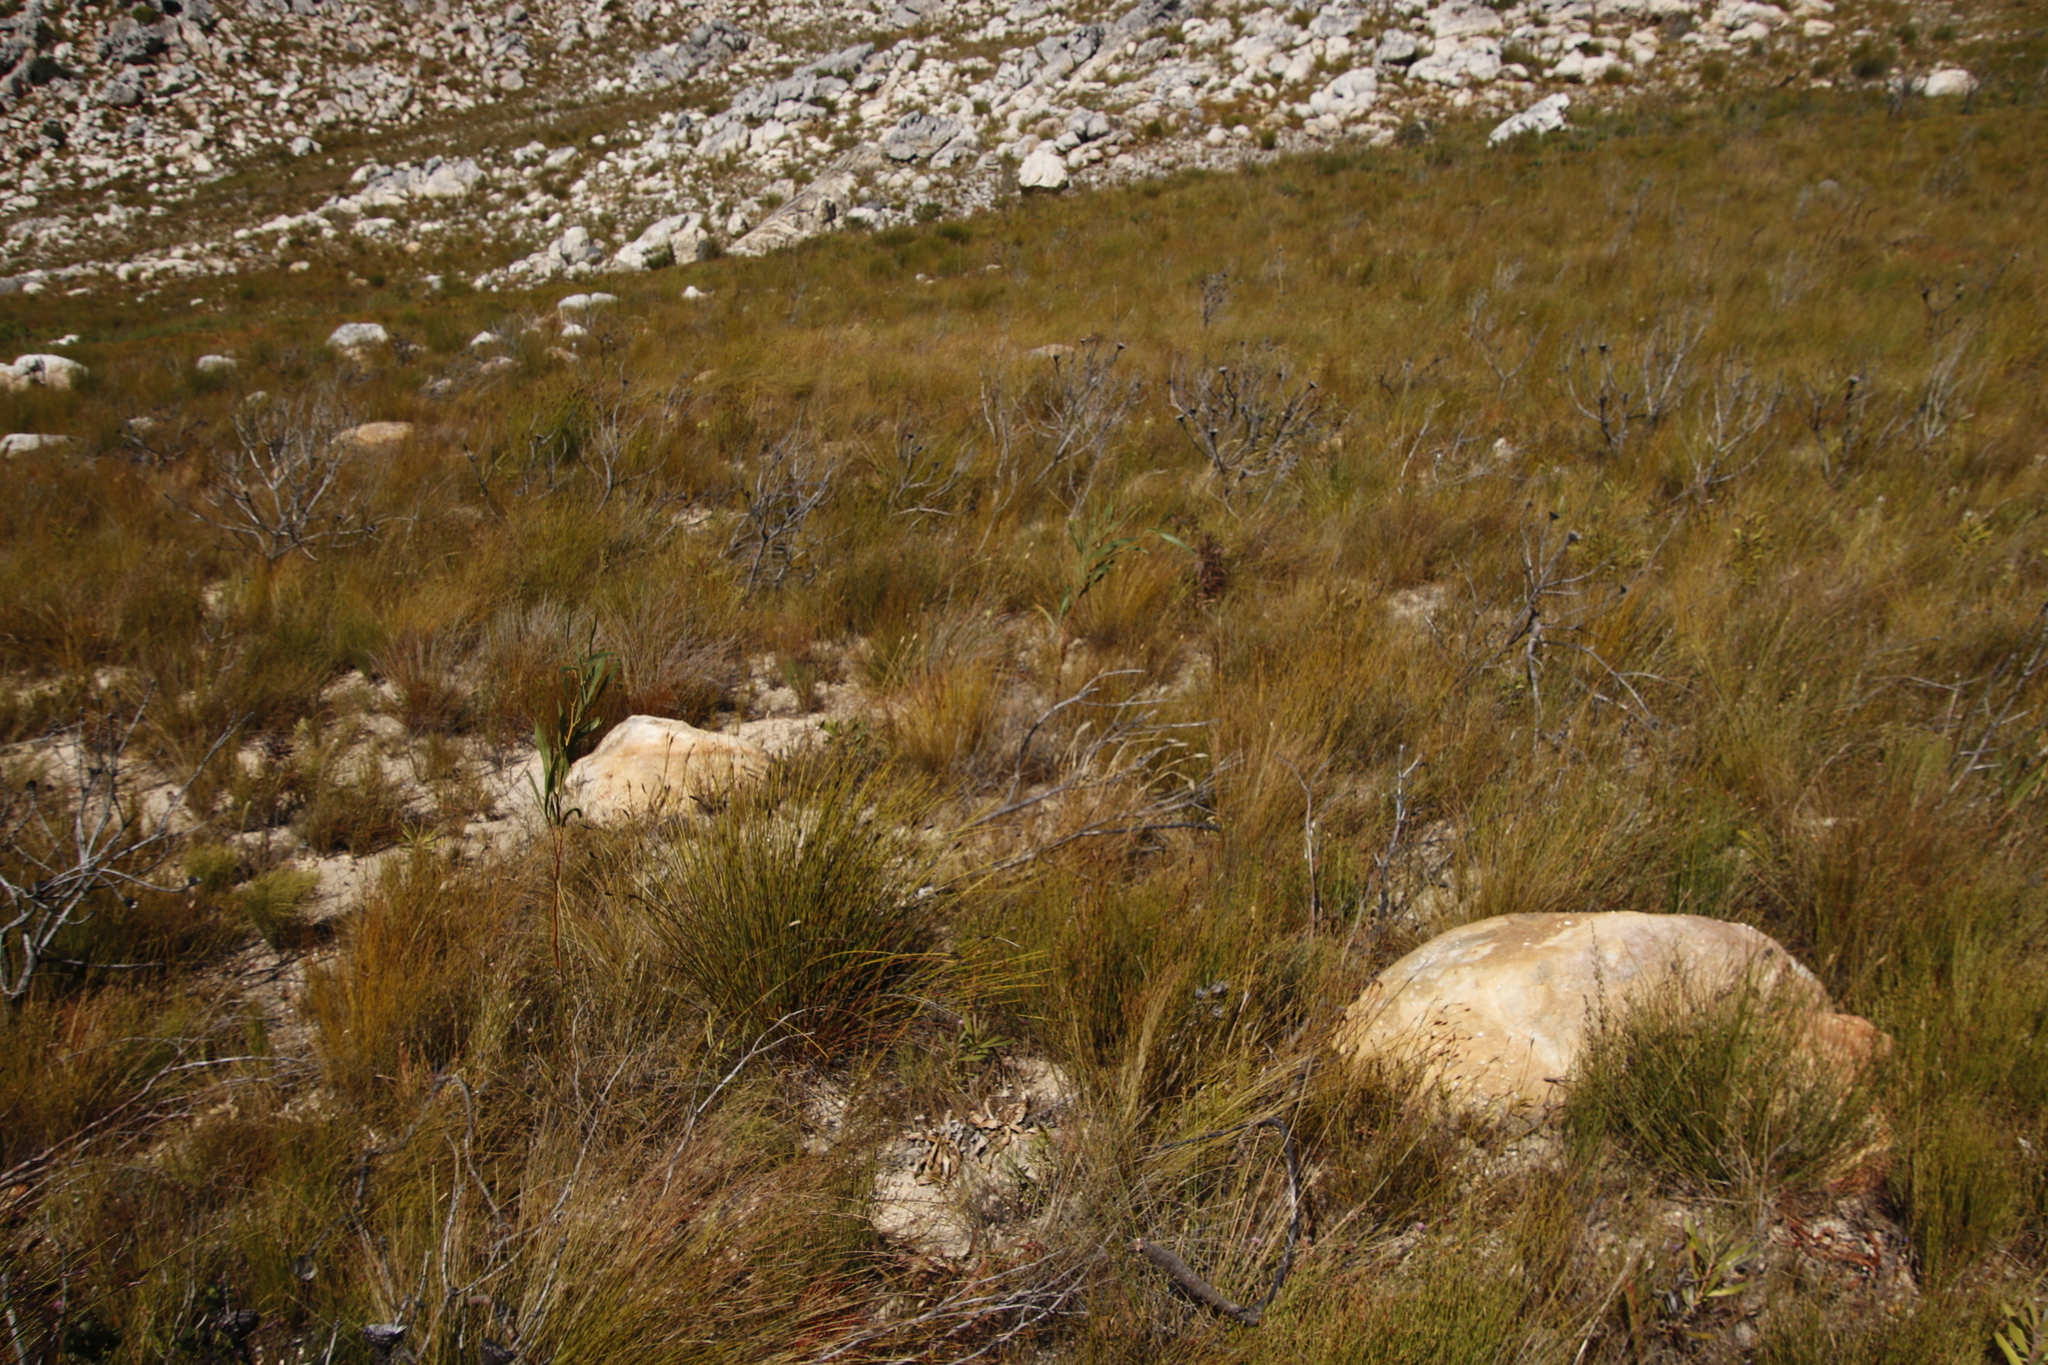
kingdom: Plantae
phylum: Tracheophyta
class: Magnoliopsida
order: Proteales
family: Proteaceae
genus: Hakea
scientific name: Hakea sericea
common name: Needle bush
